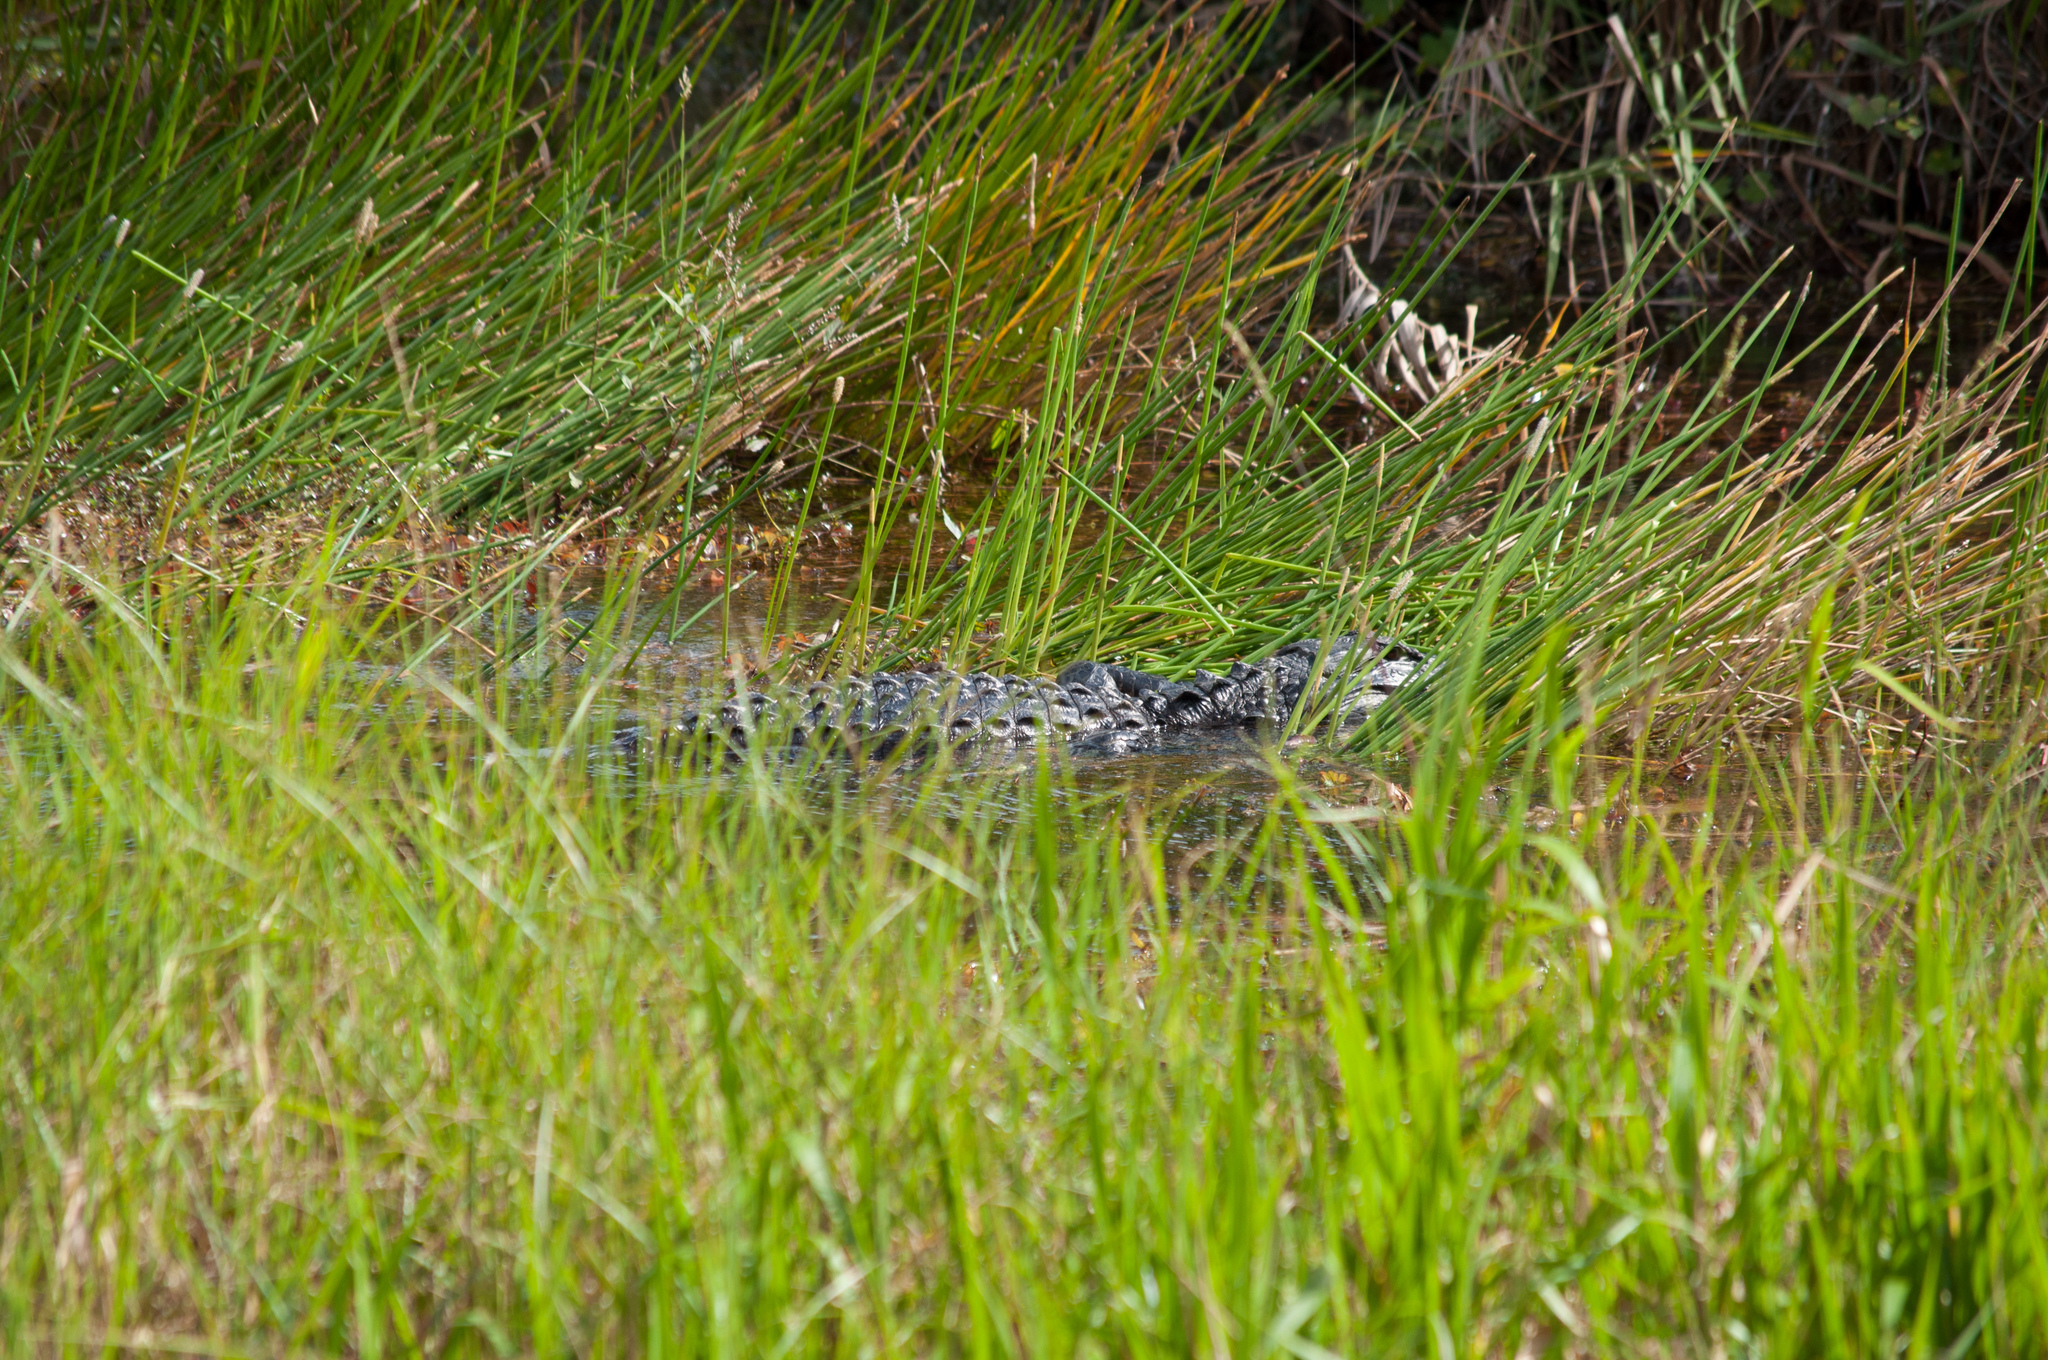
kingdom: Animalia
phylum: Chordata
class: Crocodylia
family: Alligatoridae
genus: Alligator
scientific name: Alligator mississippiensis
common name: American alligator
